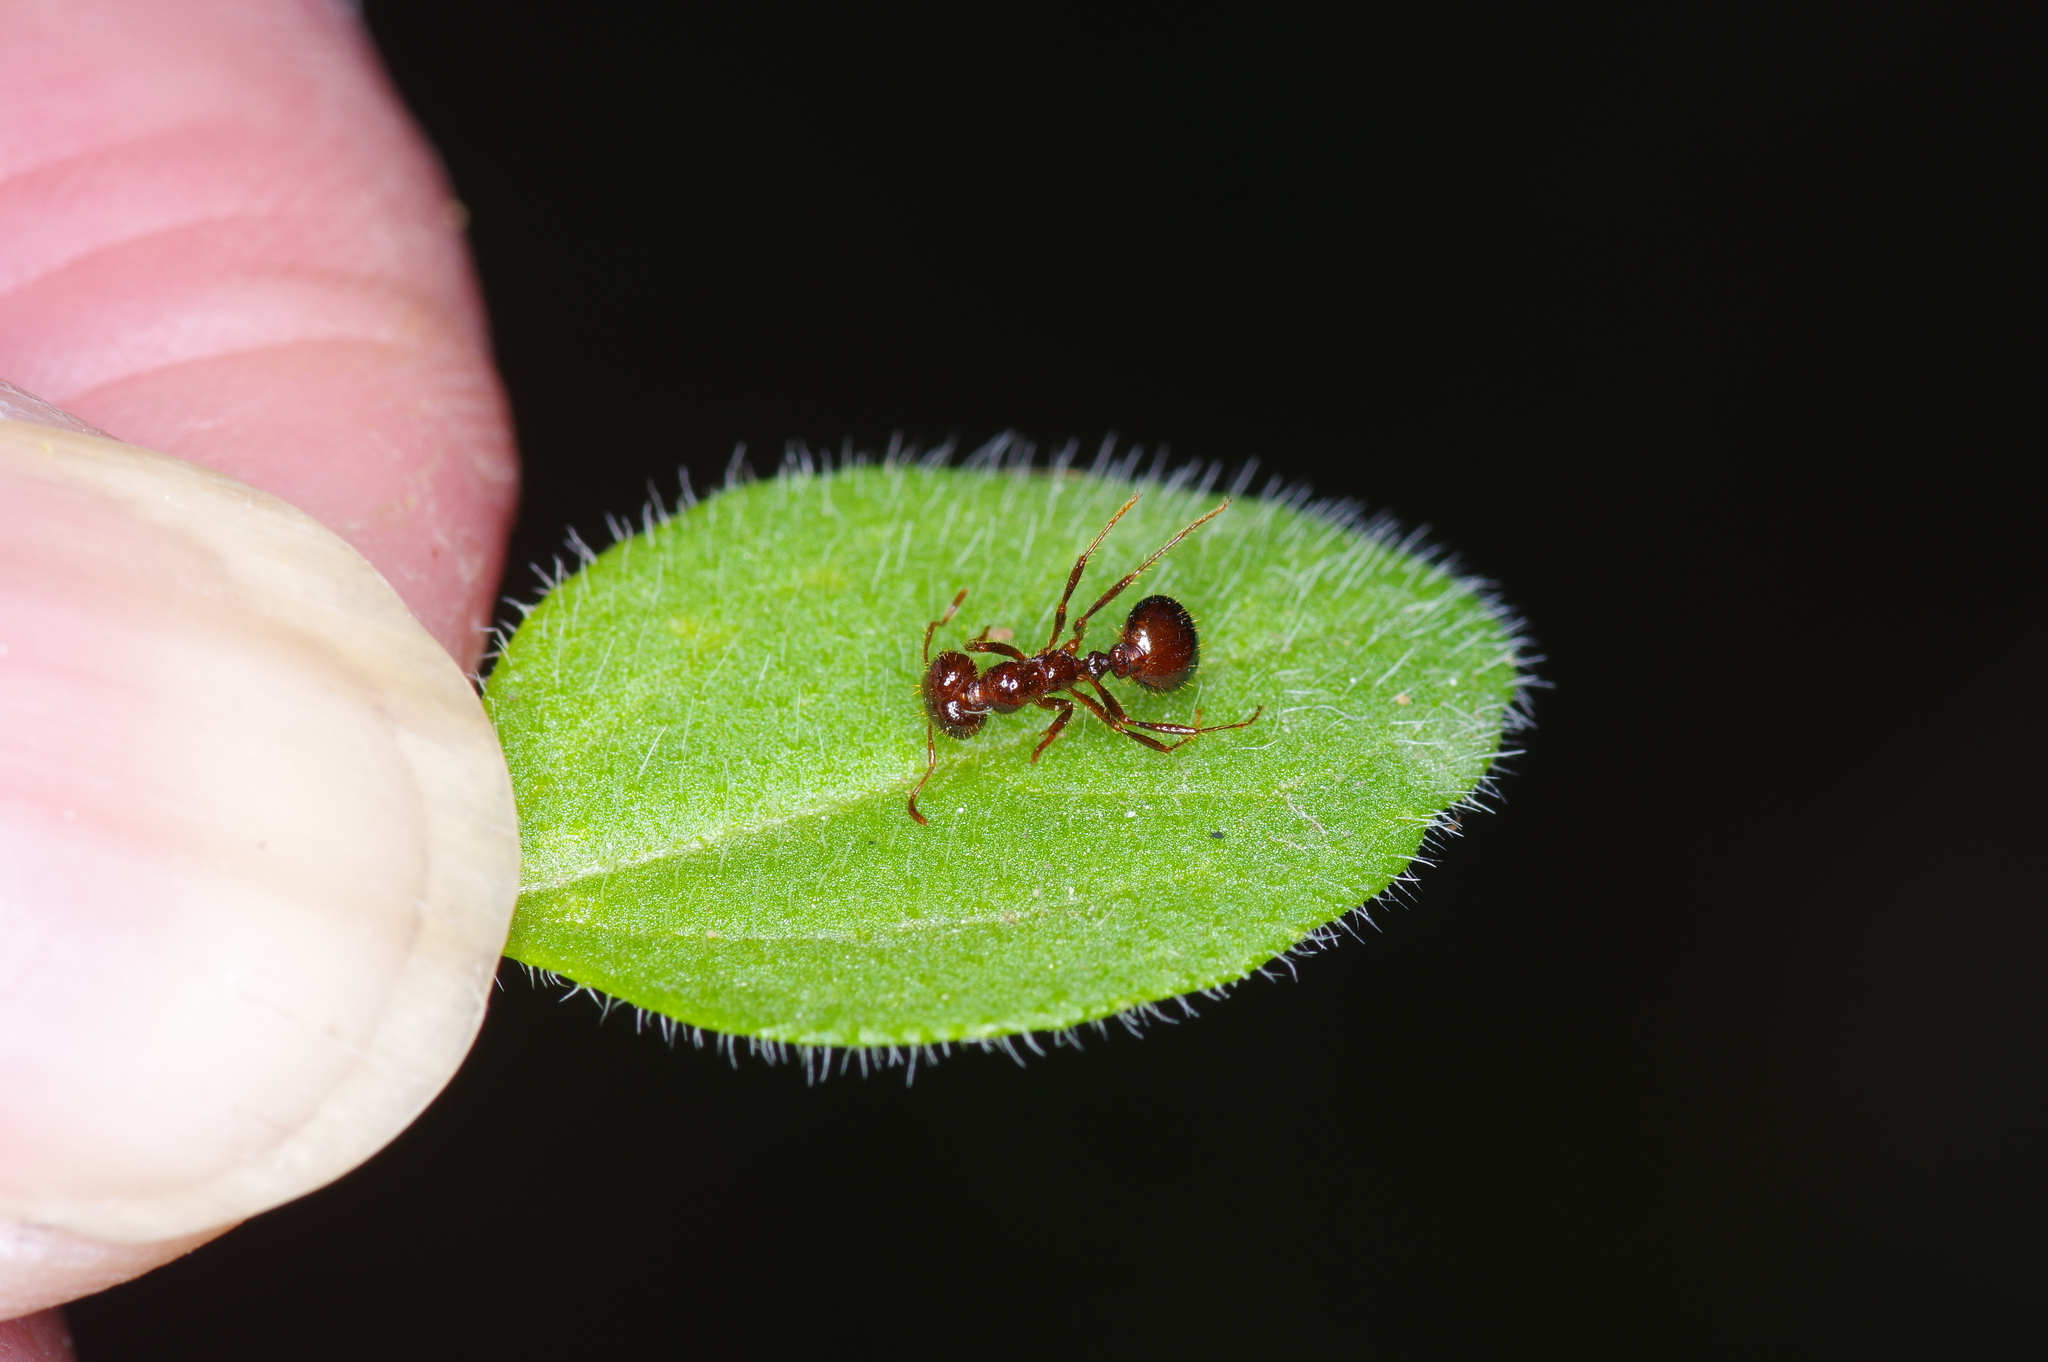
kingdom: Animalia
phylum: Arthropoda
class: Insecta
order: Hymenoptera
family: Formicidae
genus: Solenopsis
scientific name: Solenopsis invicta
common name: Red imported fire ant
